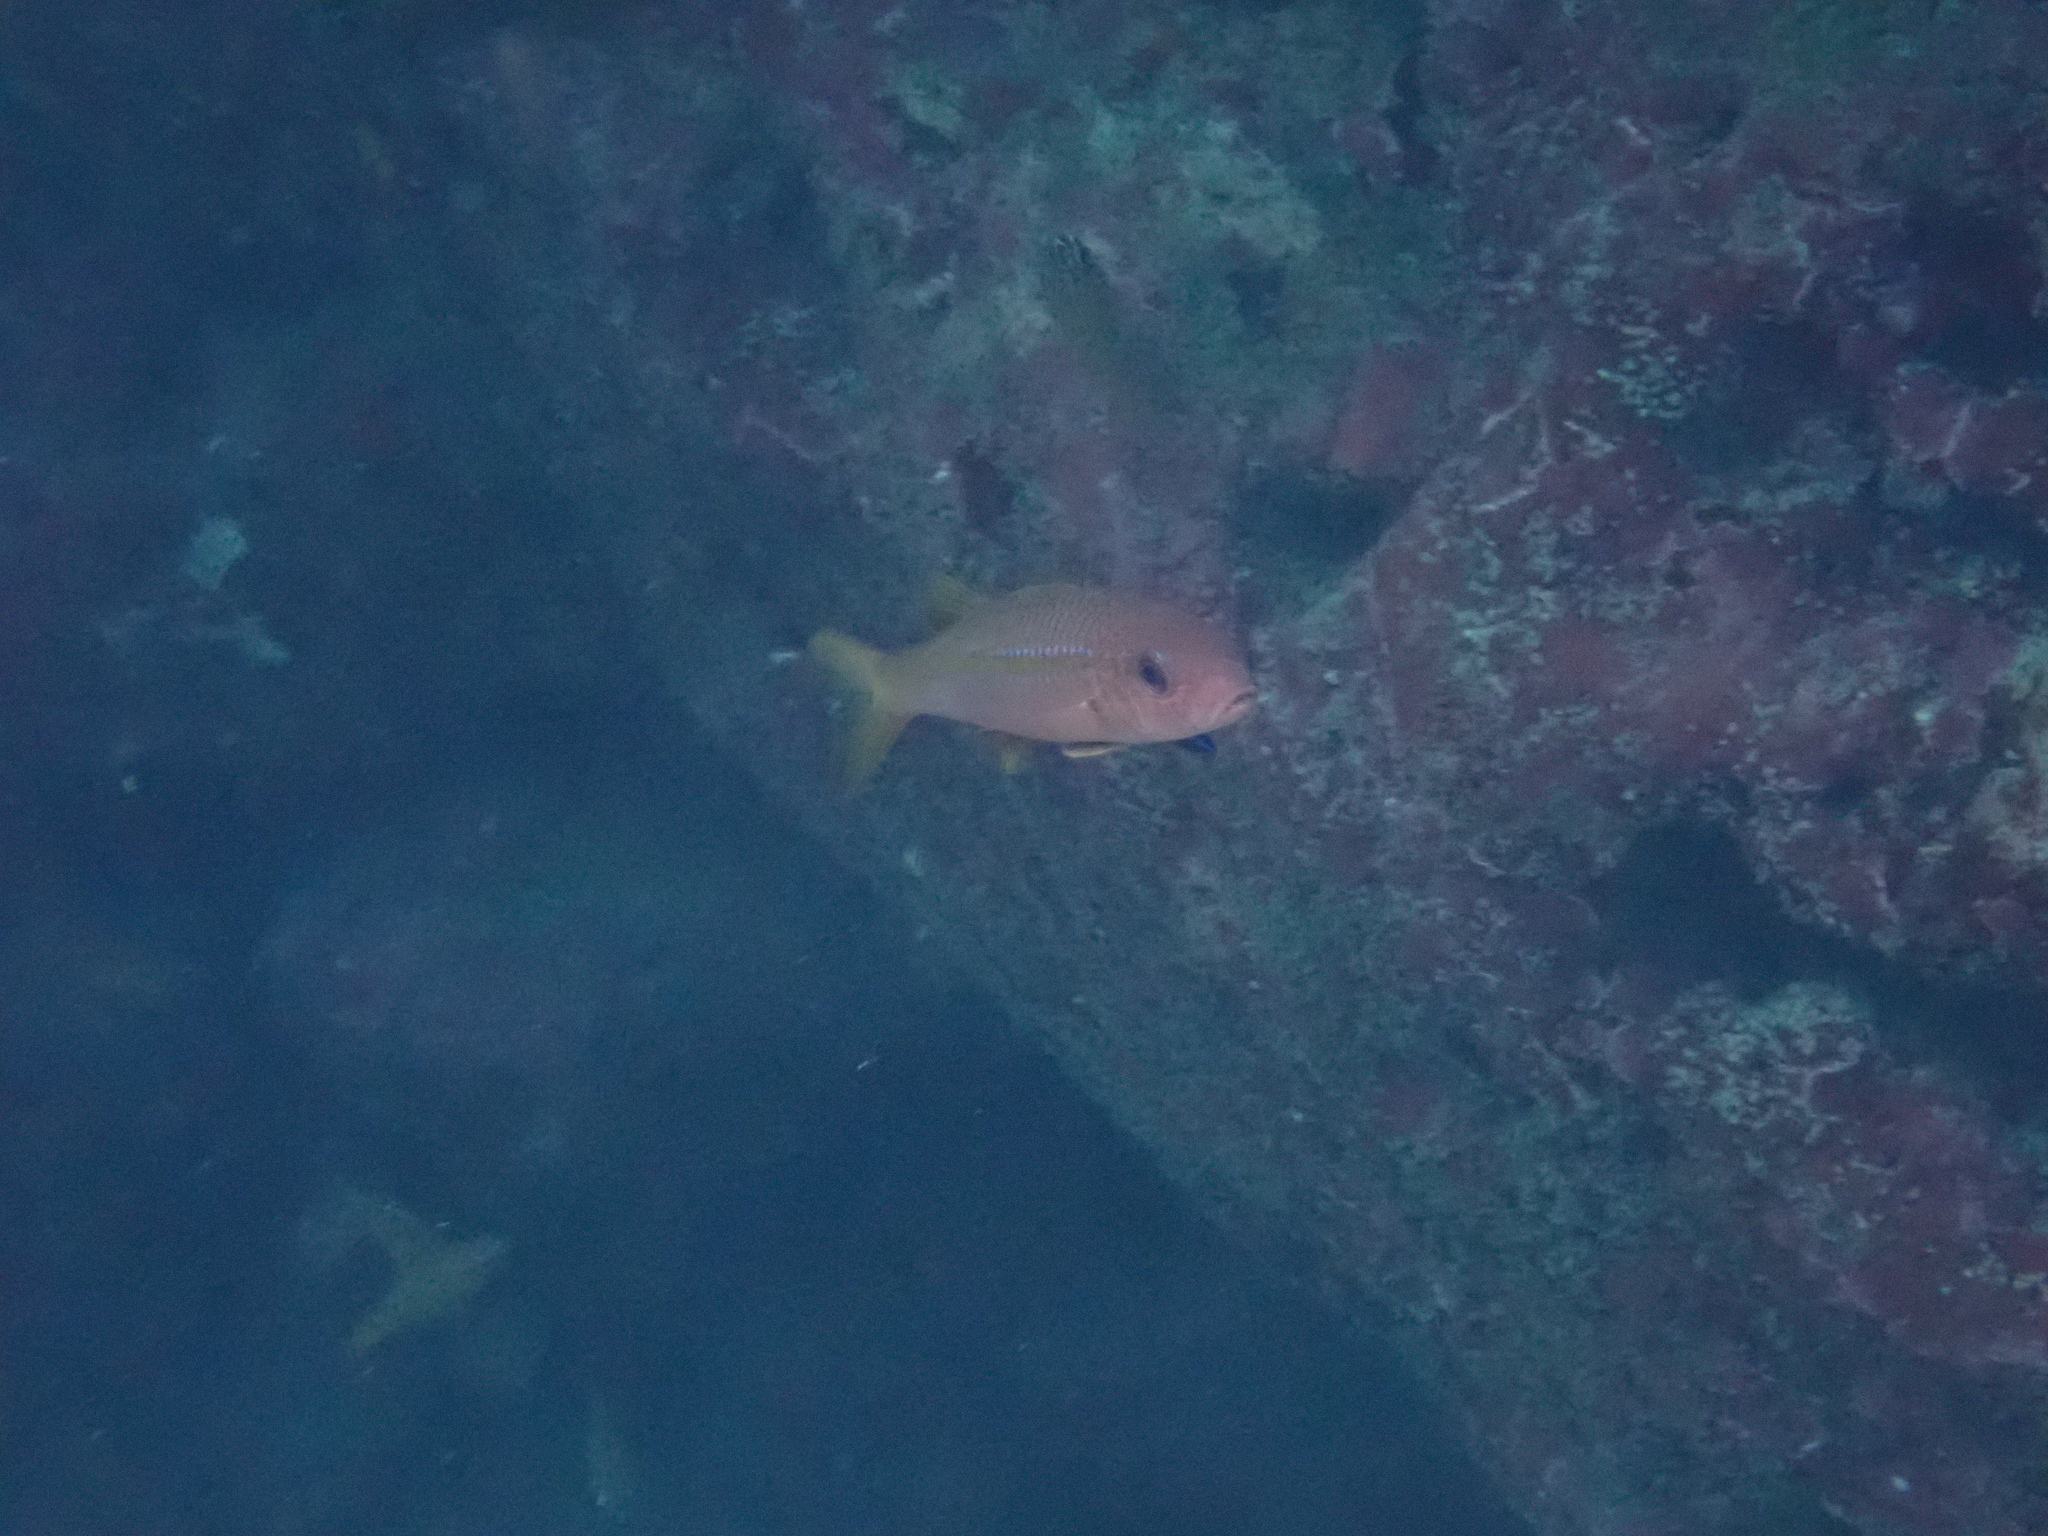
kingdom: Animalia
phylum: Chordata
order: Perciformes
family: Mullidae
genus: Mulloidichthys
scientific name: Mulloidichthys vanicolensis
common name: Yellowfin goatfish
